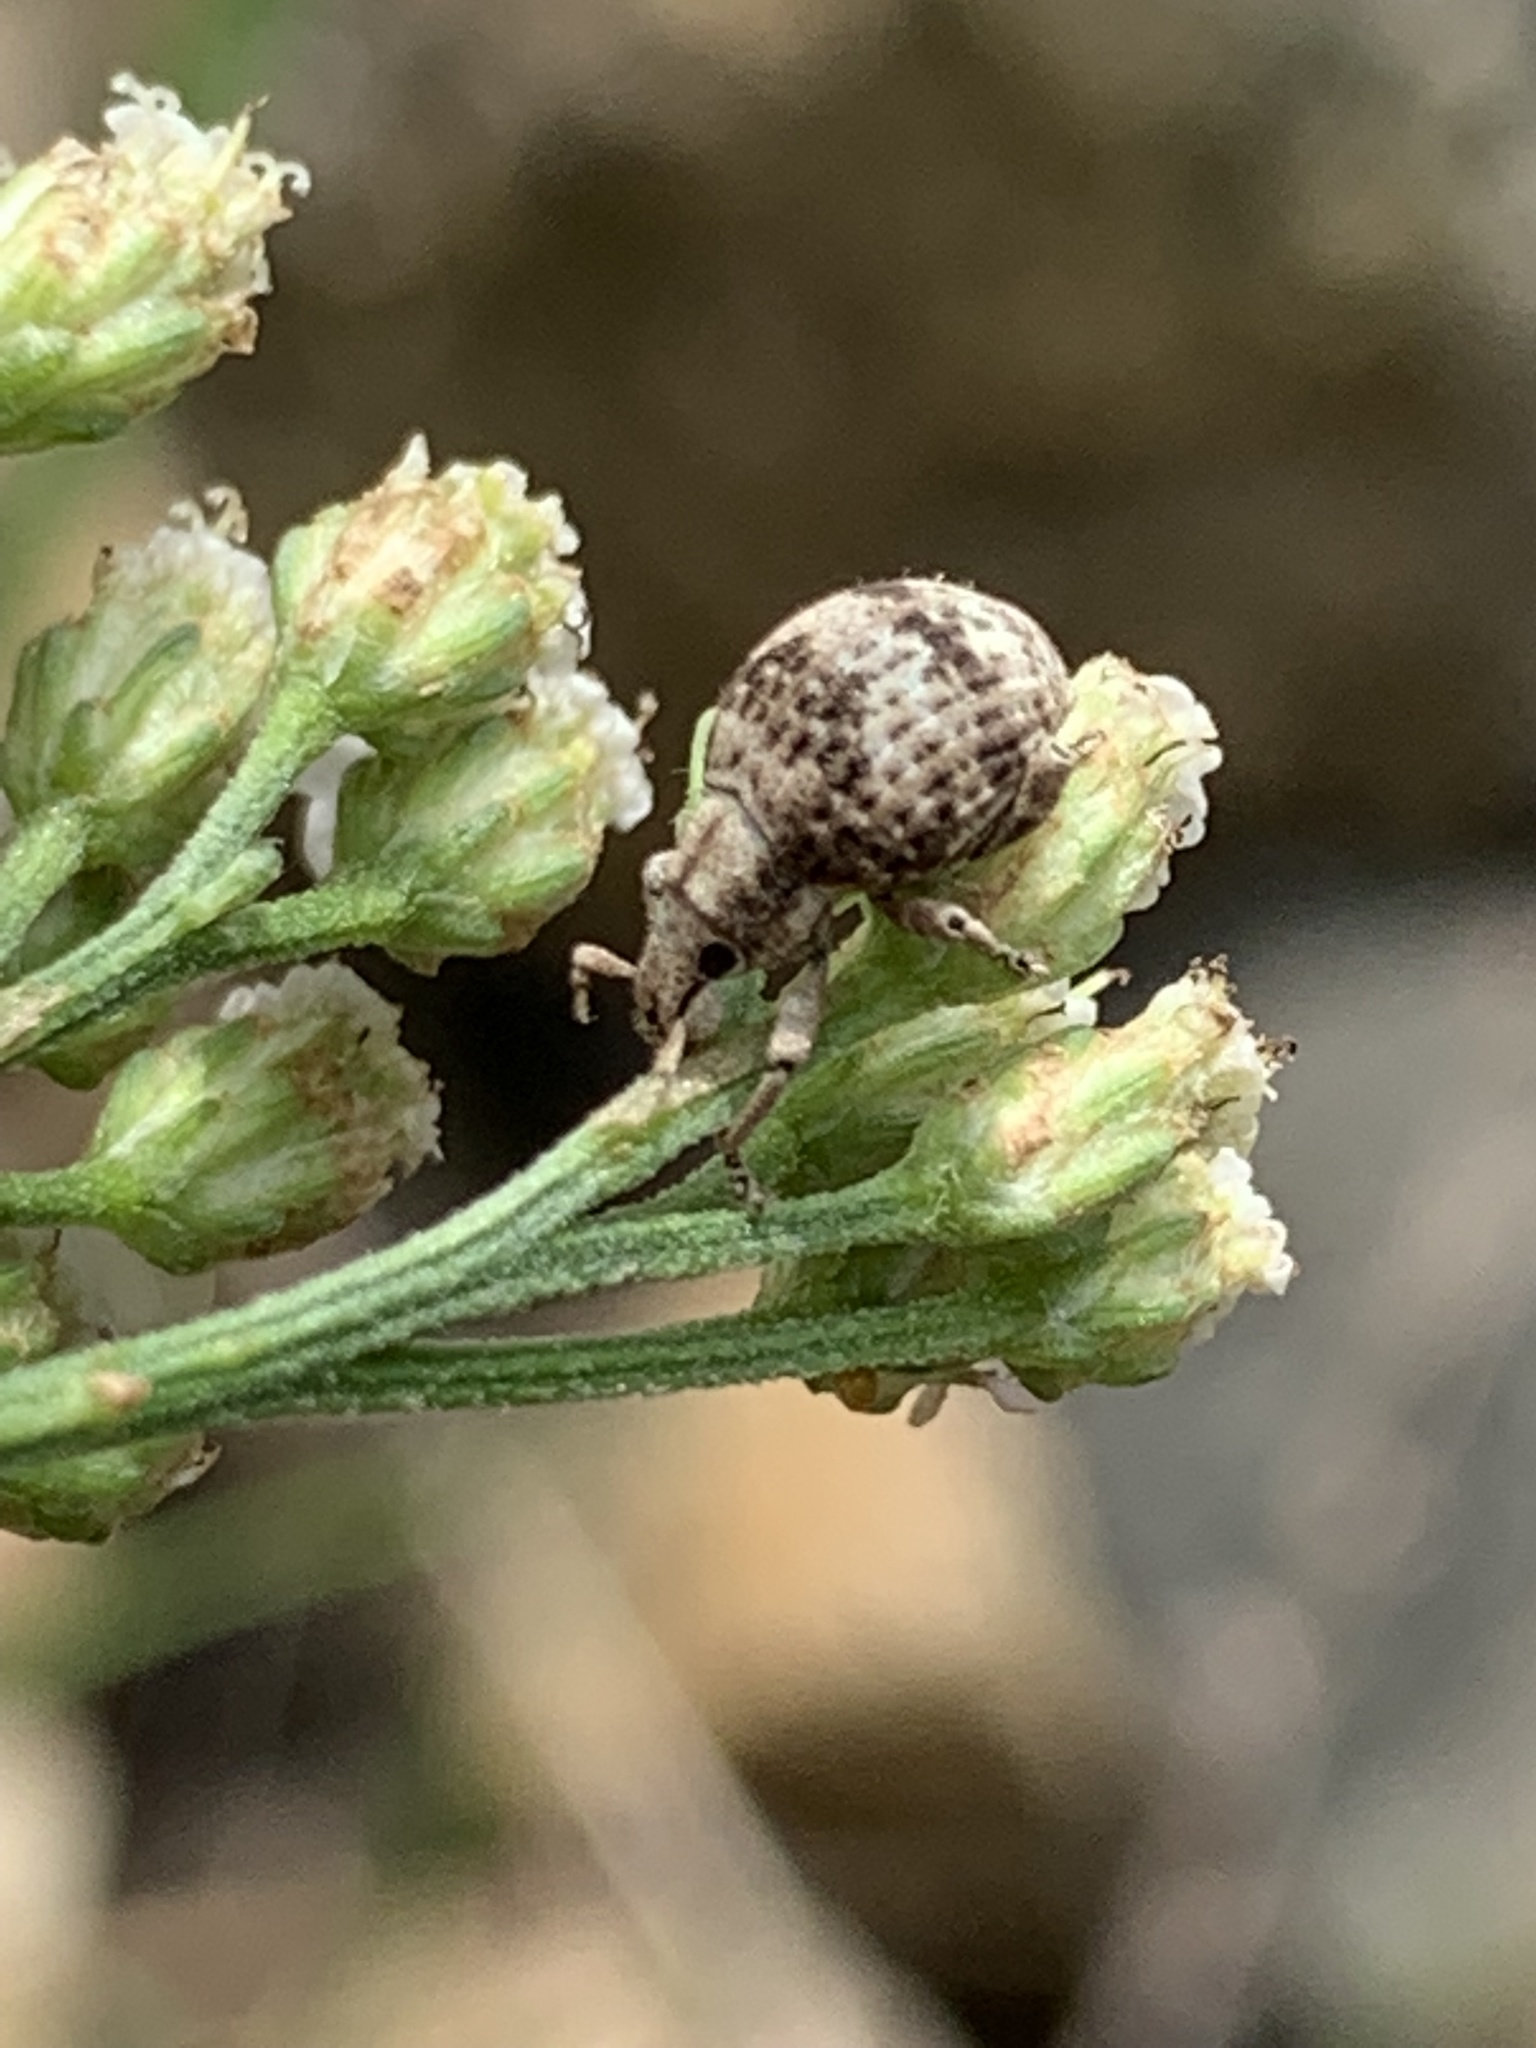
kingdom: Animalia
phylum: Arthropoda
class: Insecta
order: Coleoptera
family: Curculionidae
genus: Pseudocneorhinus
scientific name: Pseudocneorhinus bifasciatus
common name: Two-banded japanese weevil
